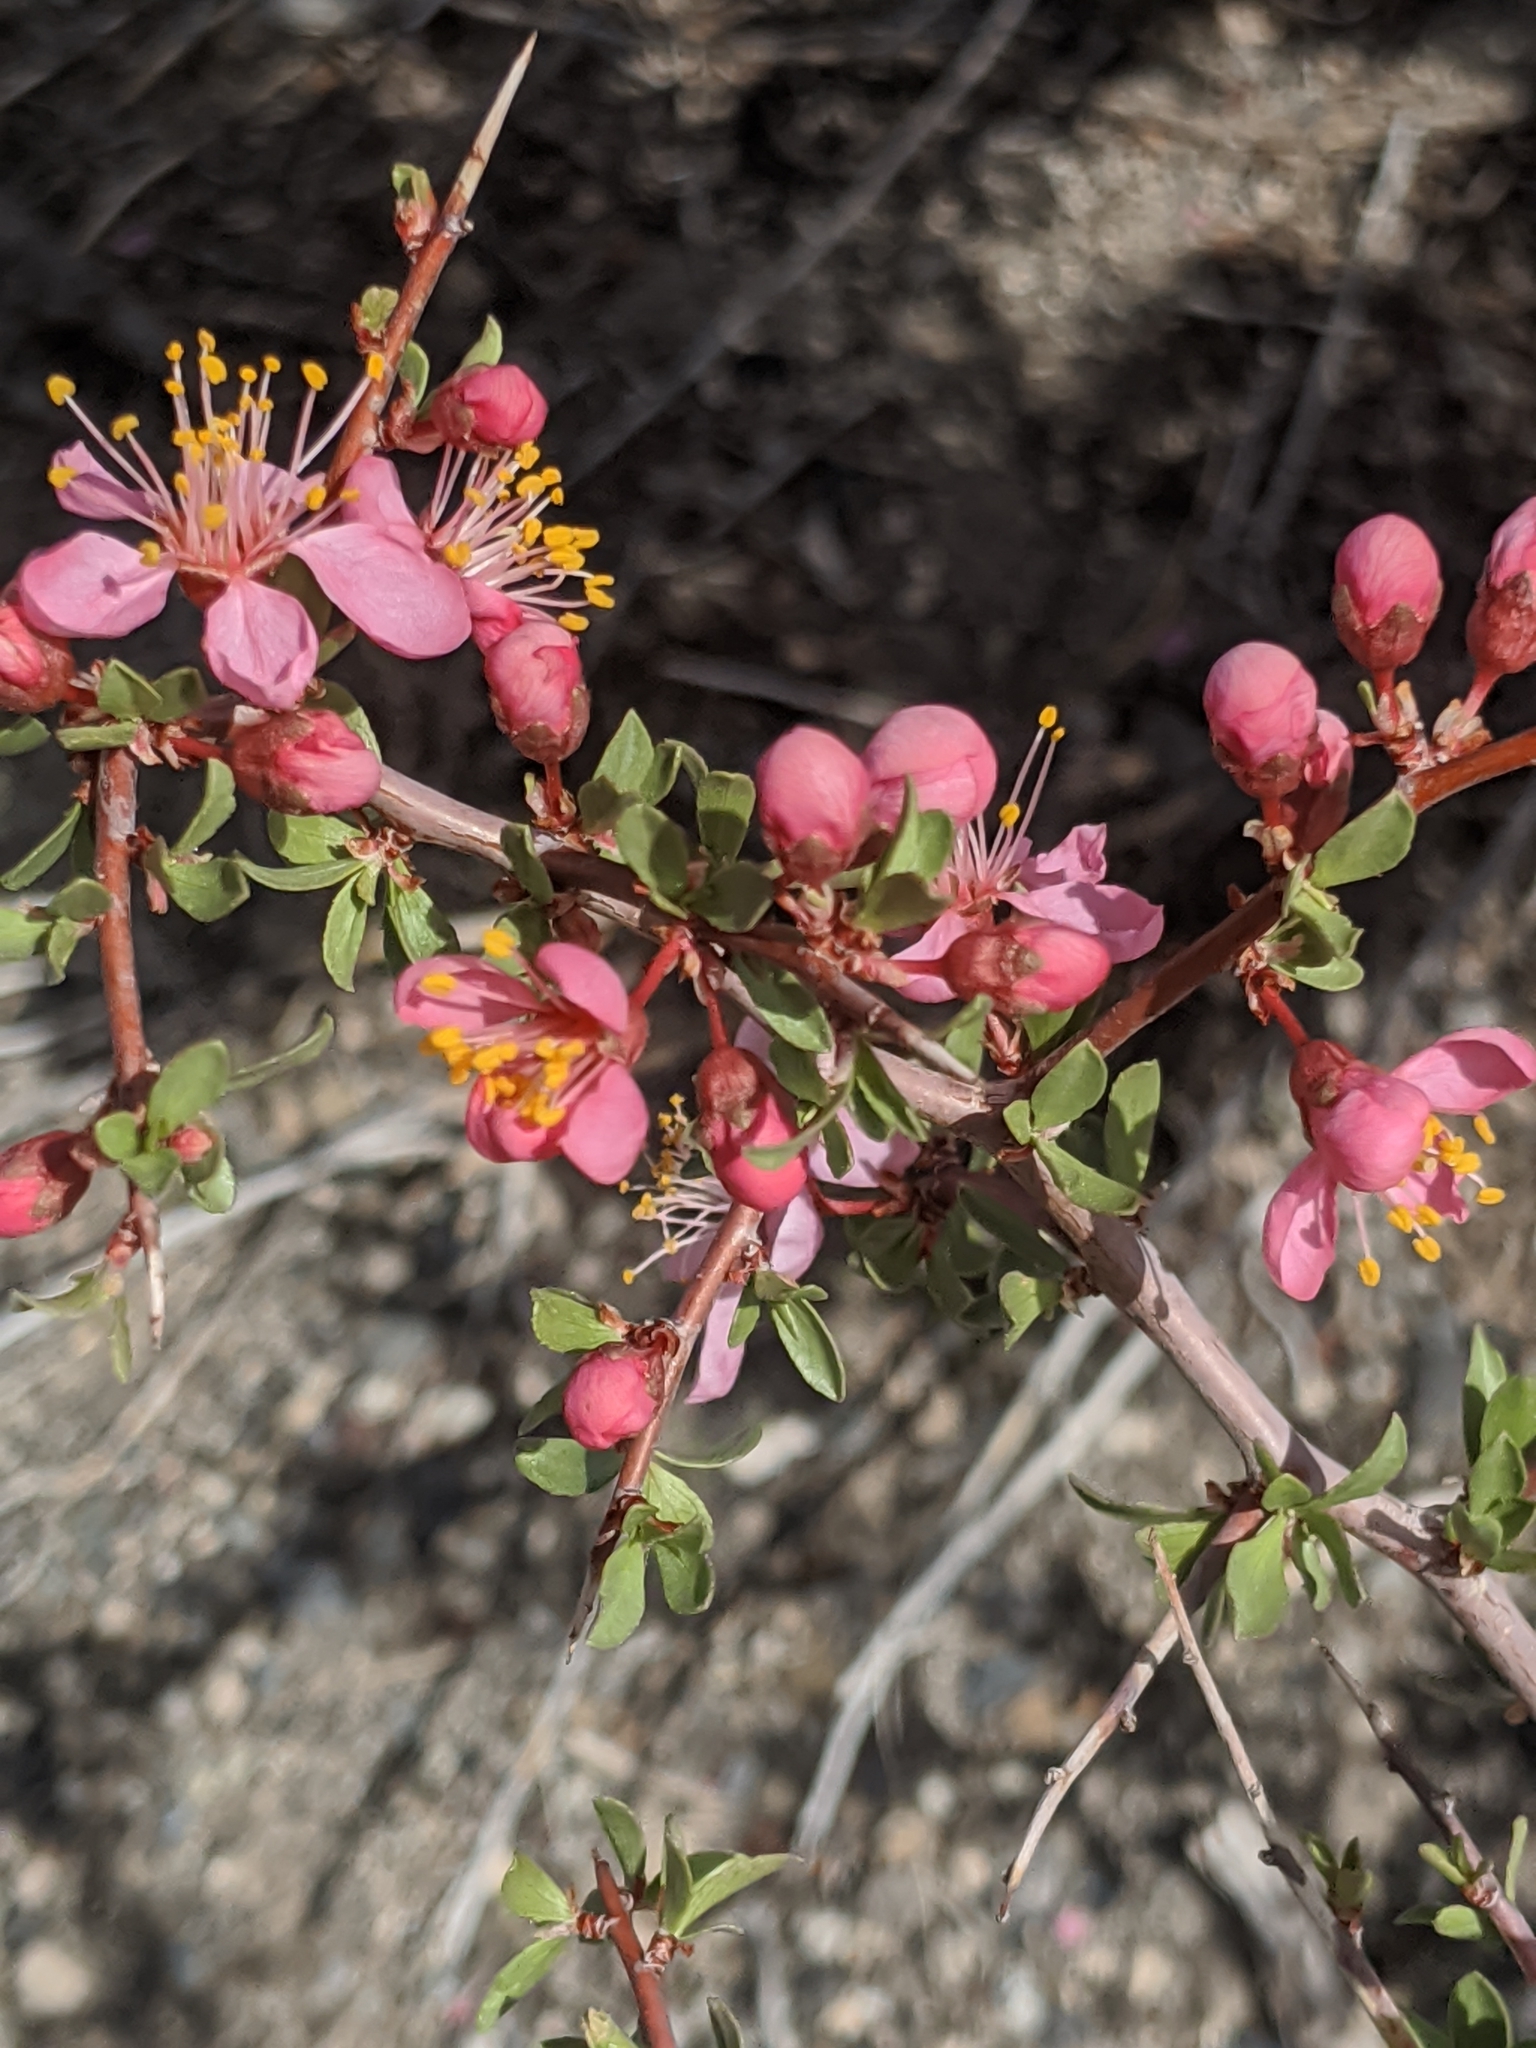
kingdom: Plantae
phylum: Tracheophyta
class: Magnoliopsida
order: Rosales
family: Rosaceae
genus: Prunus
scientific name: Prunus andersonii
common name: Desert peach
